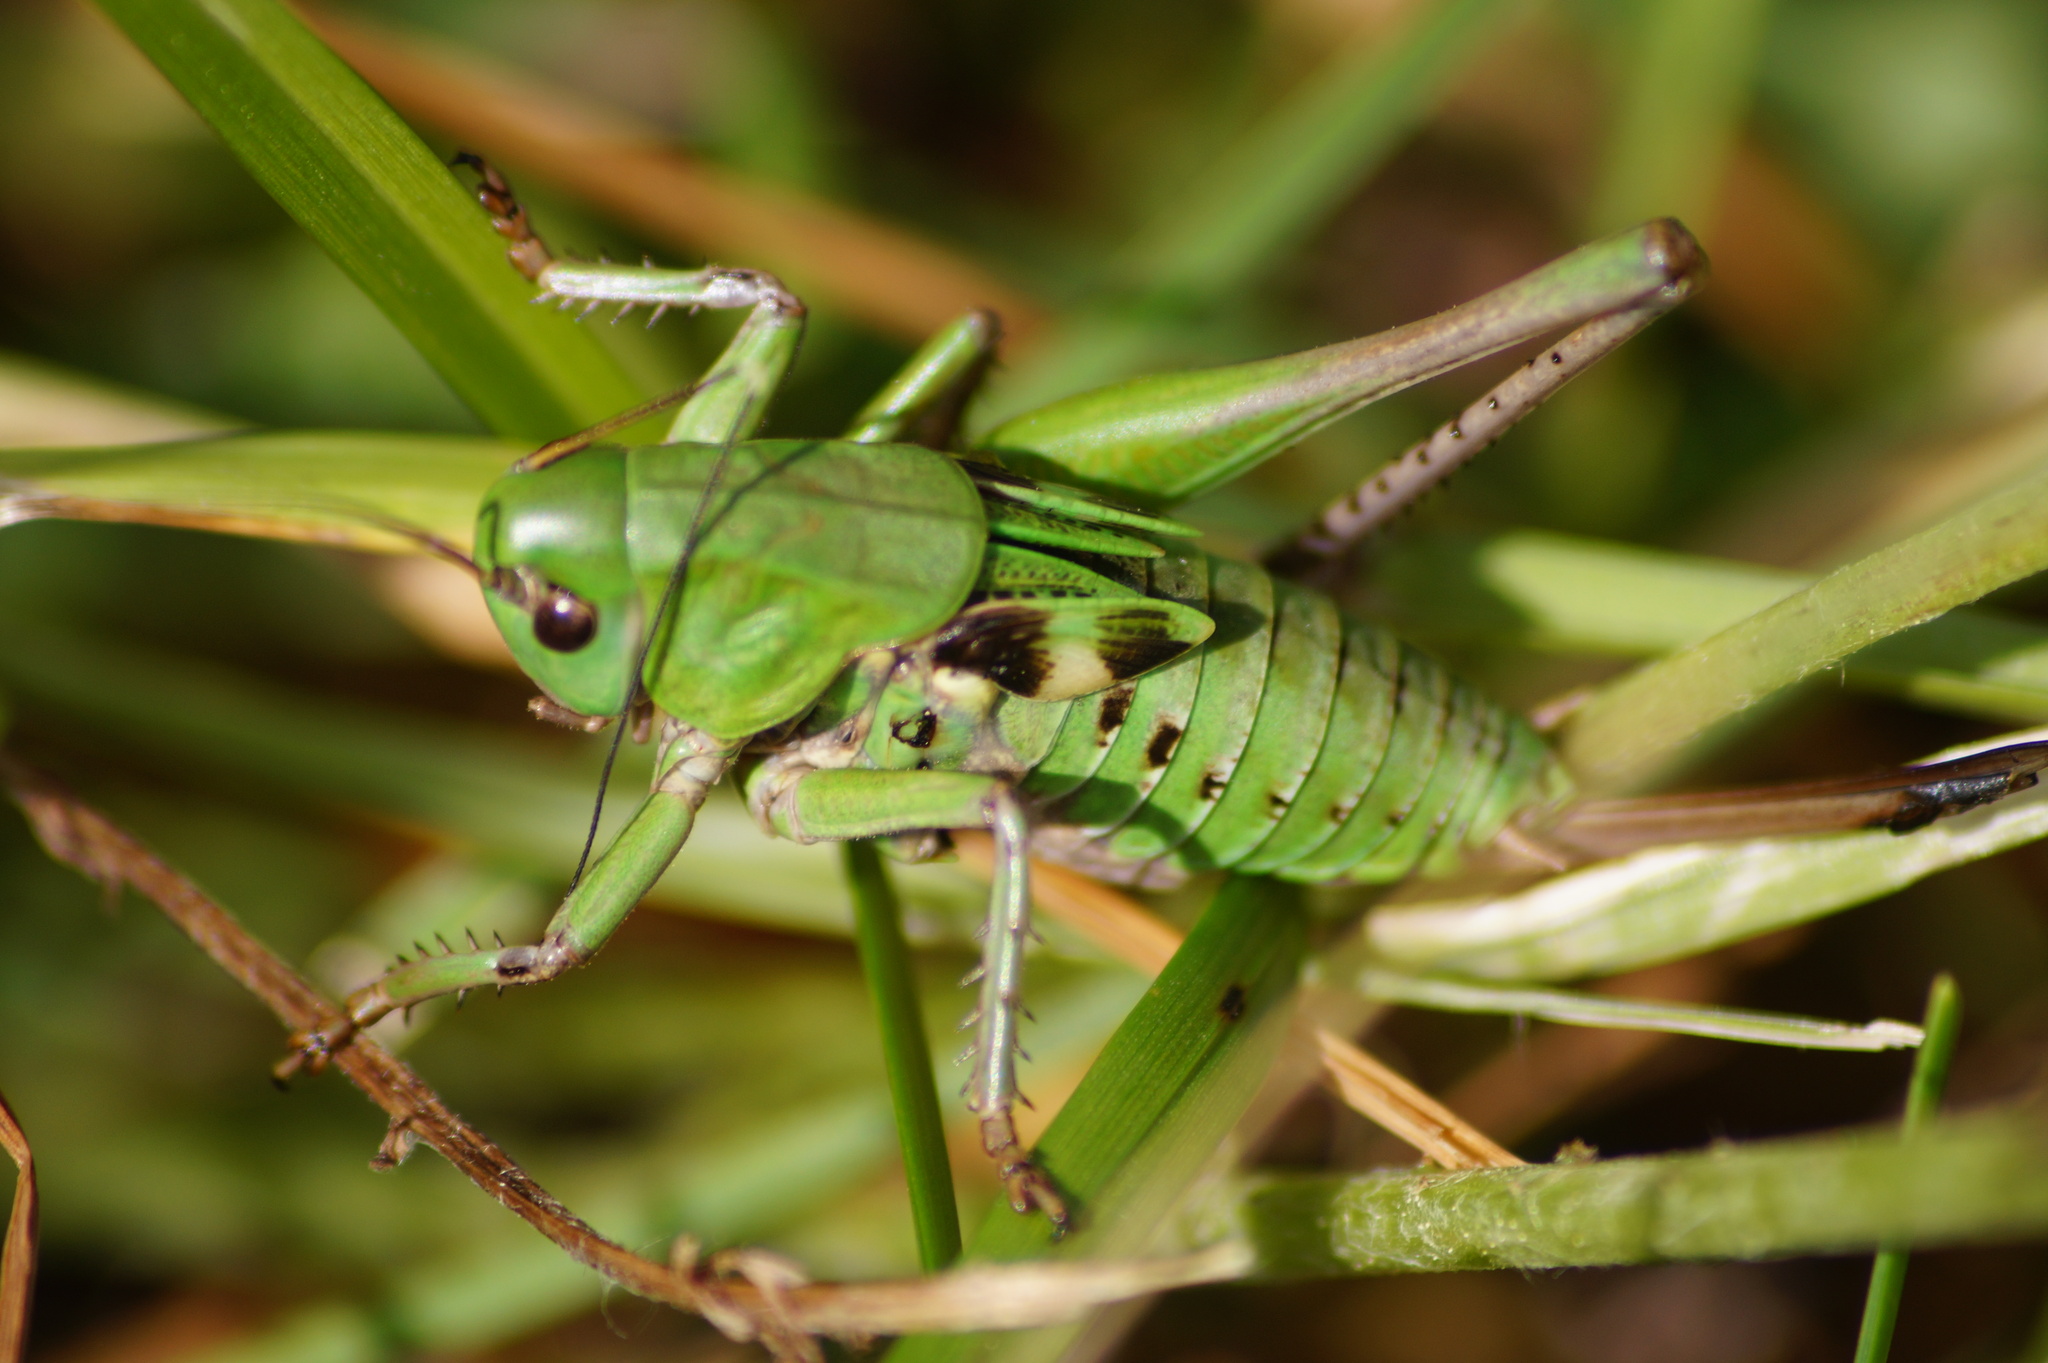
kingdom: Animalia
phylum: Arthropoda
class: Insecta
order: Orthoptera
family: Tettigoniidae
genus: Decticus
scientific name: Decticus verrucivorus
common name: Wart-biter
